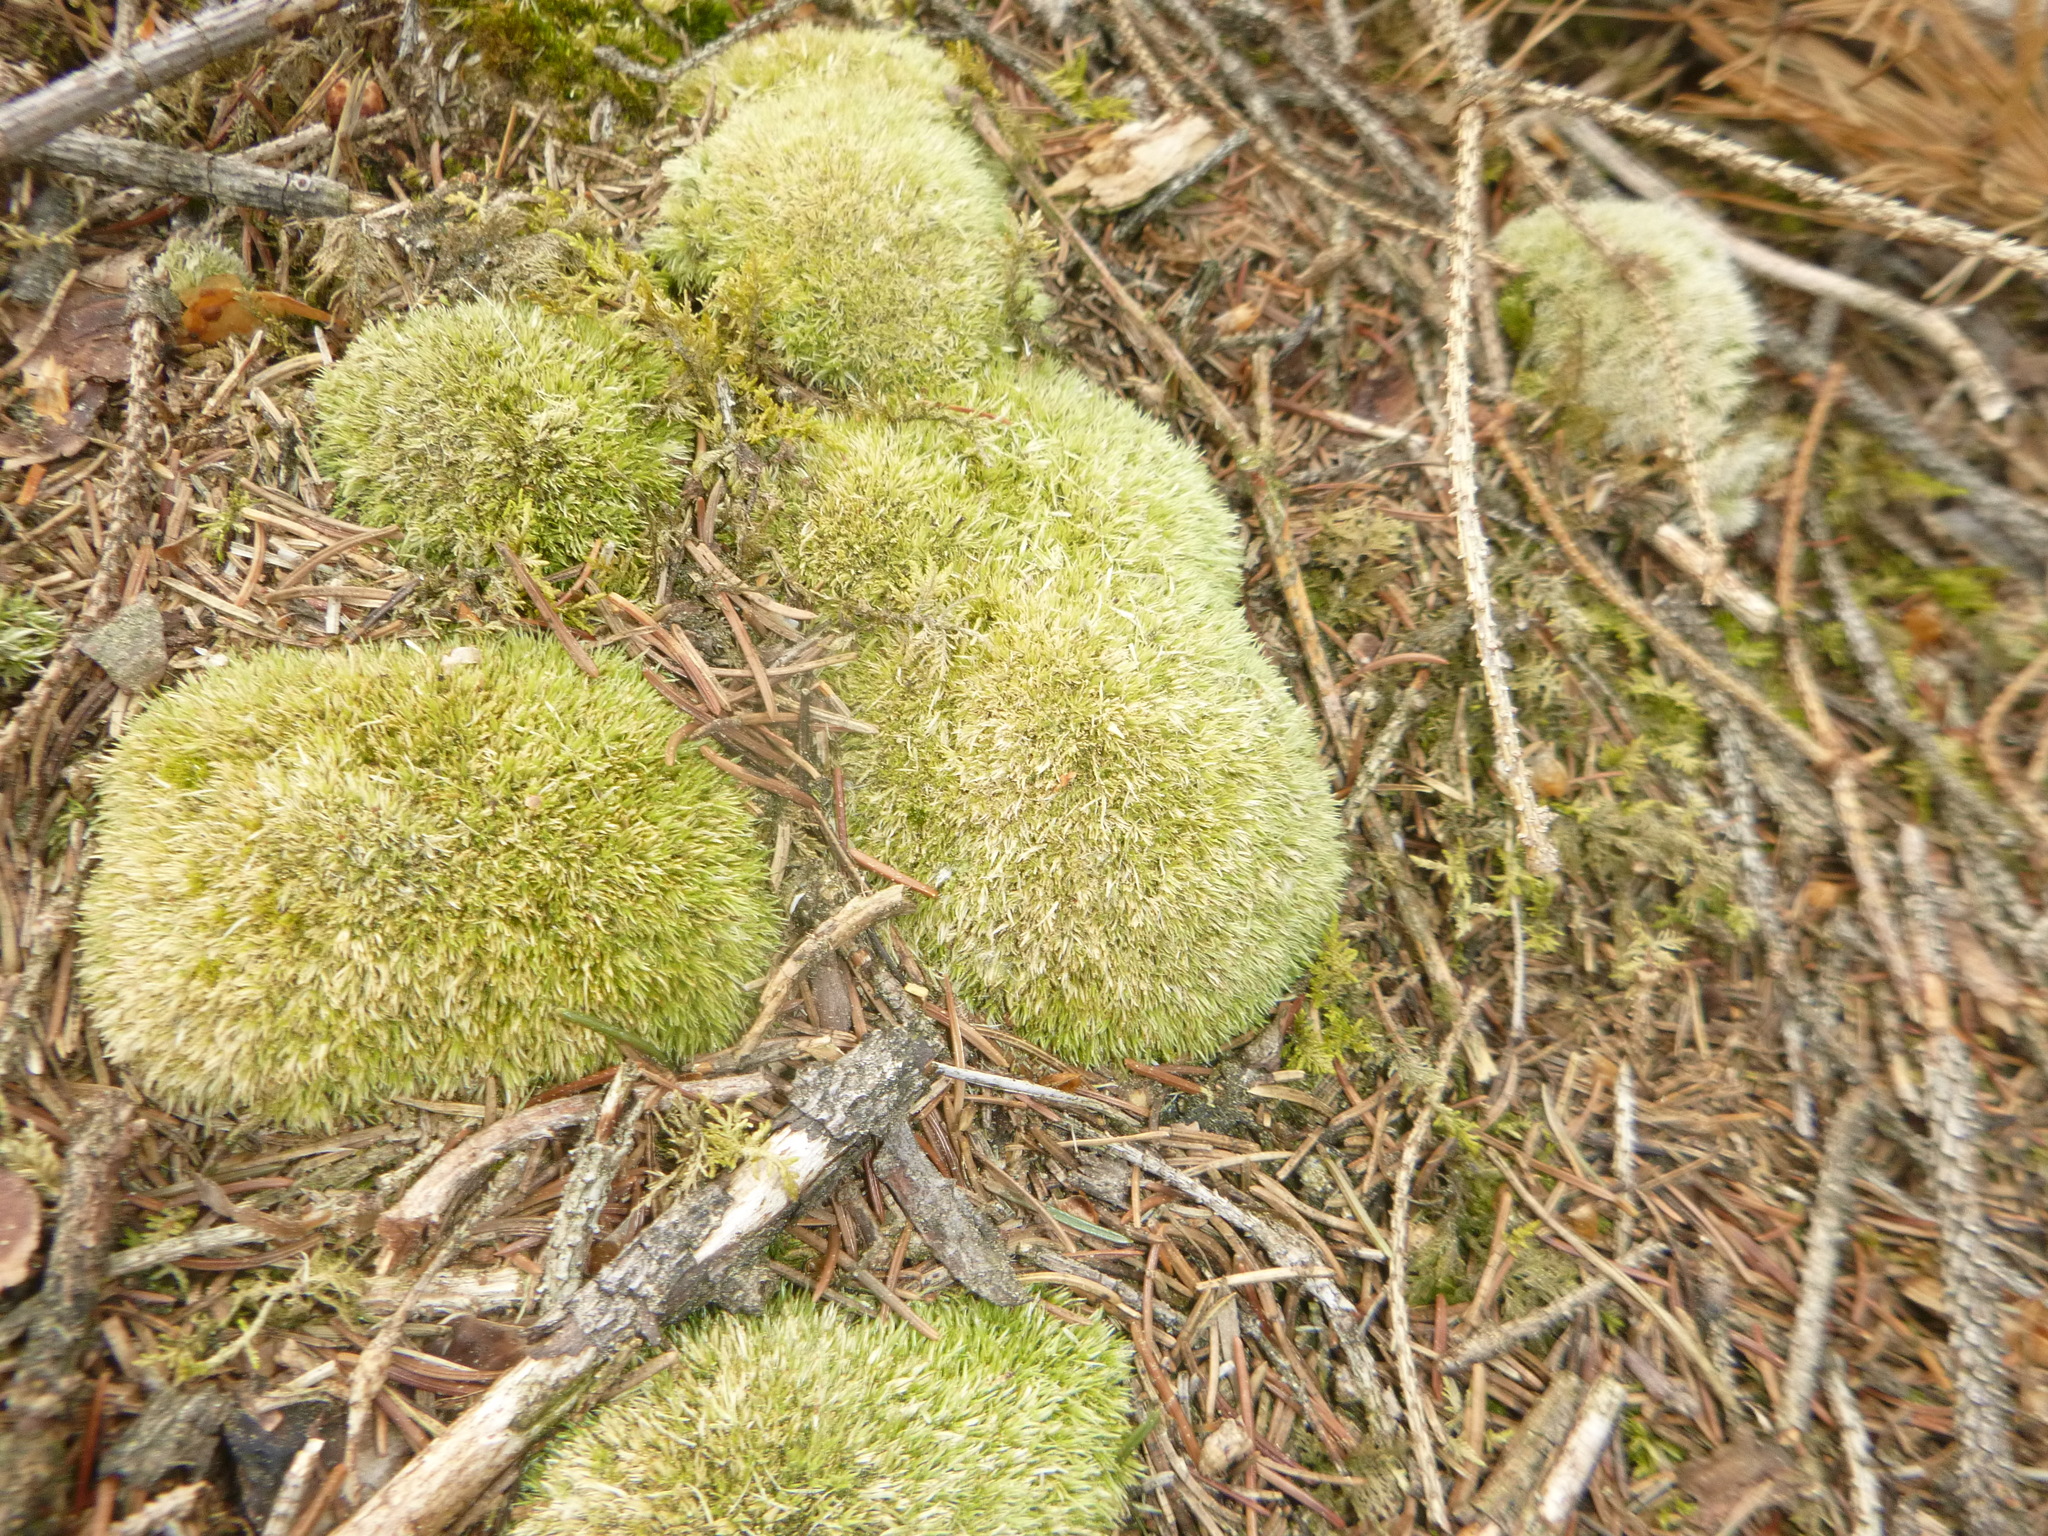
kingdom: Plantae
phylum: Bryophyta
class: Bryopsida
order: Dicranales
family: Leucobryaceae
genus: Leucobryum
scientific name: Leucobryum glaucum
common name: Large white-moss
